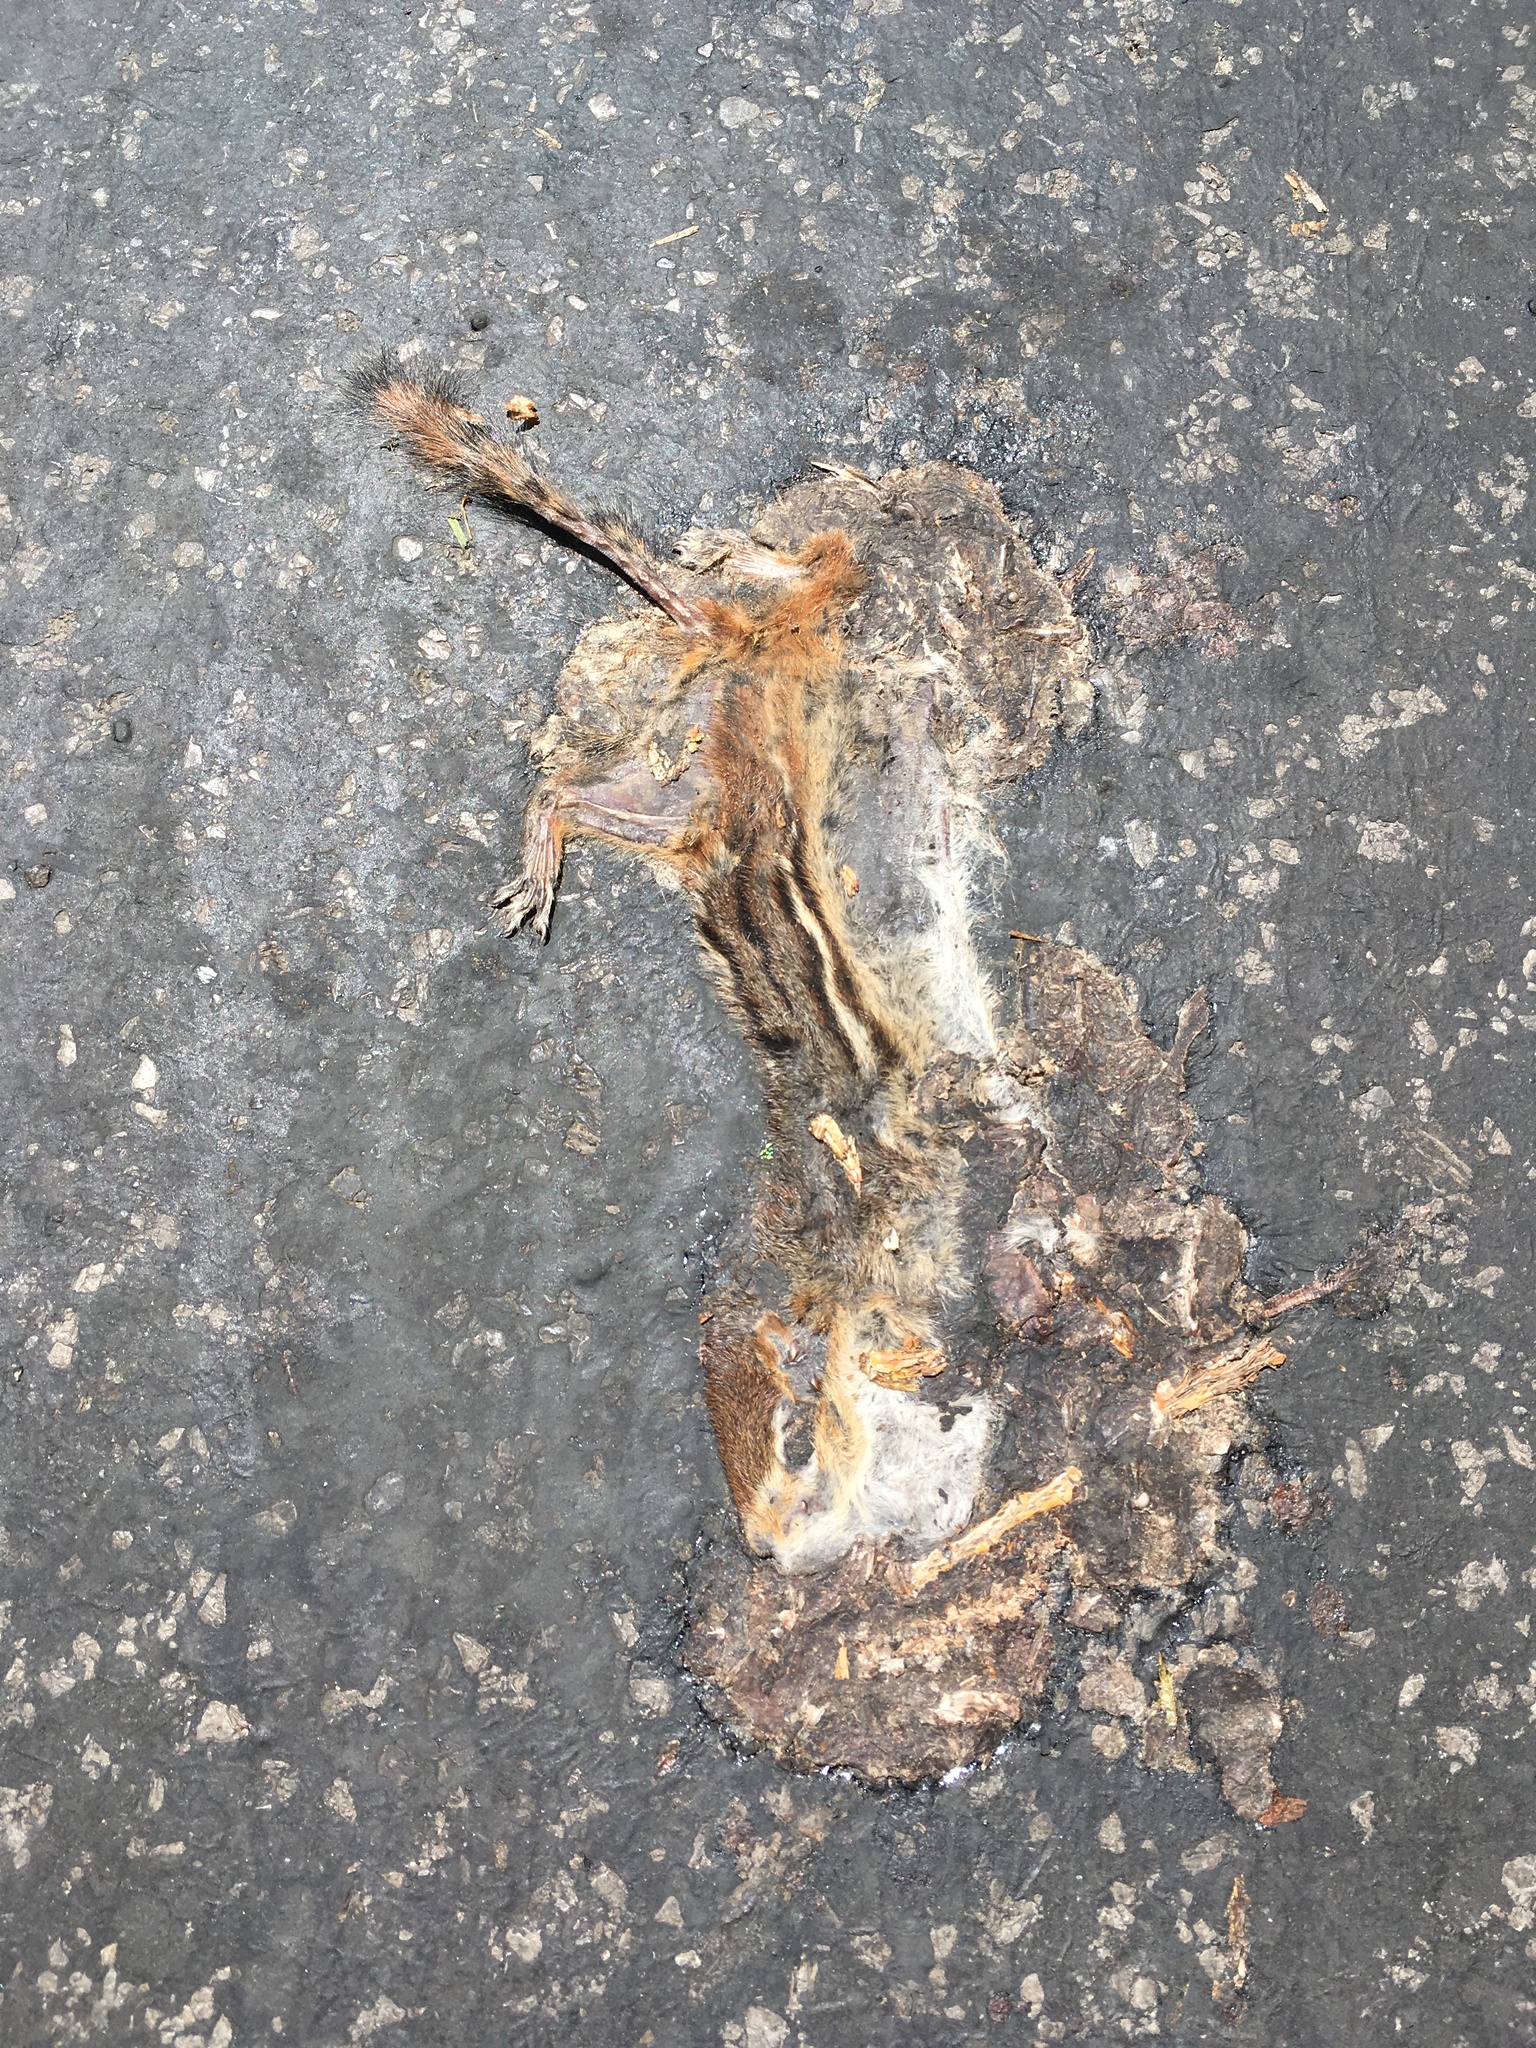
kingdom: Animalia
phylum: Chordata
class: Mammalia
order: Rodentia
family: Sciuridae
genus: Tamias
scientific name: Tamias striatus
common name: Eastern chipmunk
